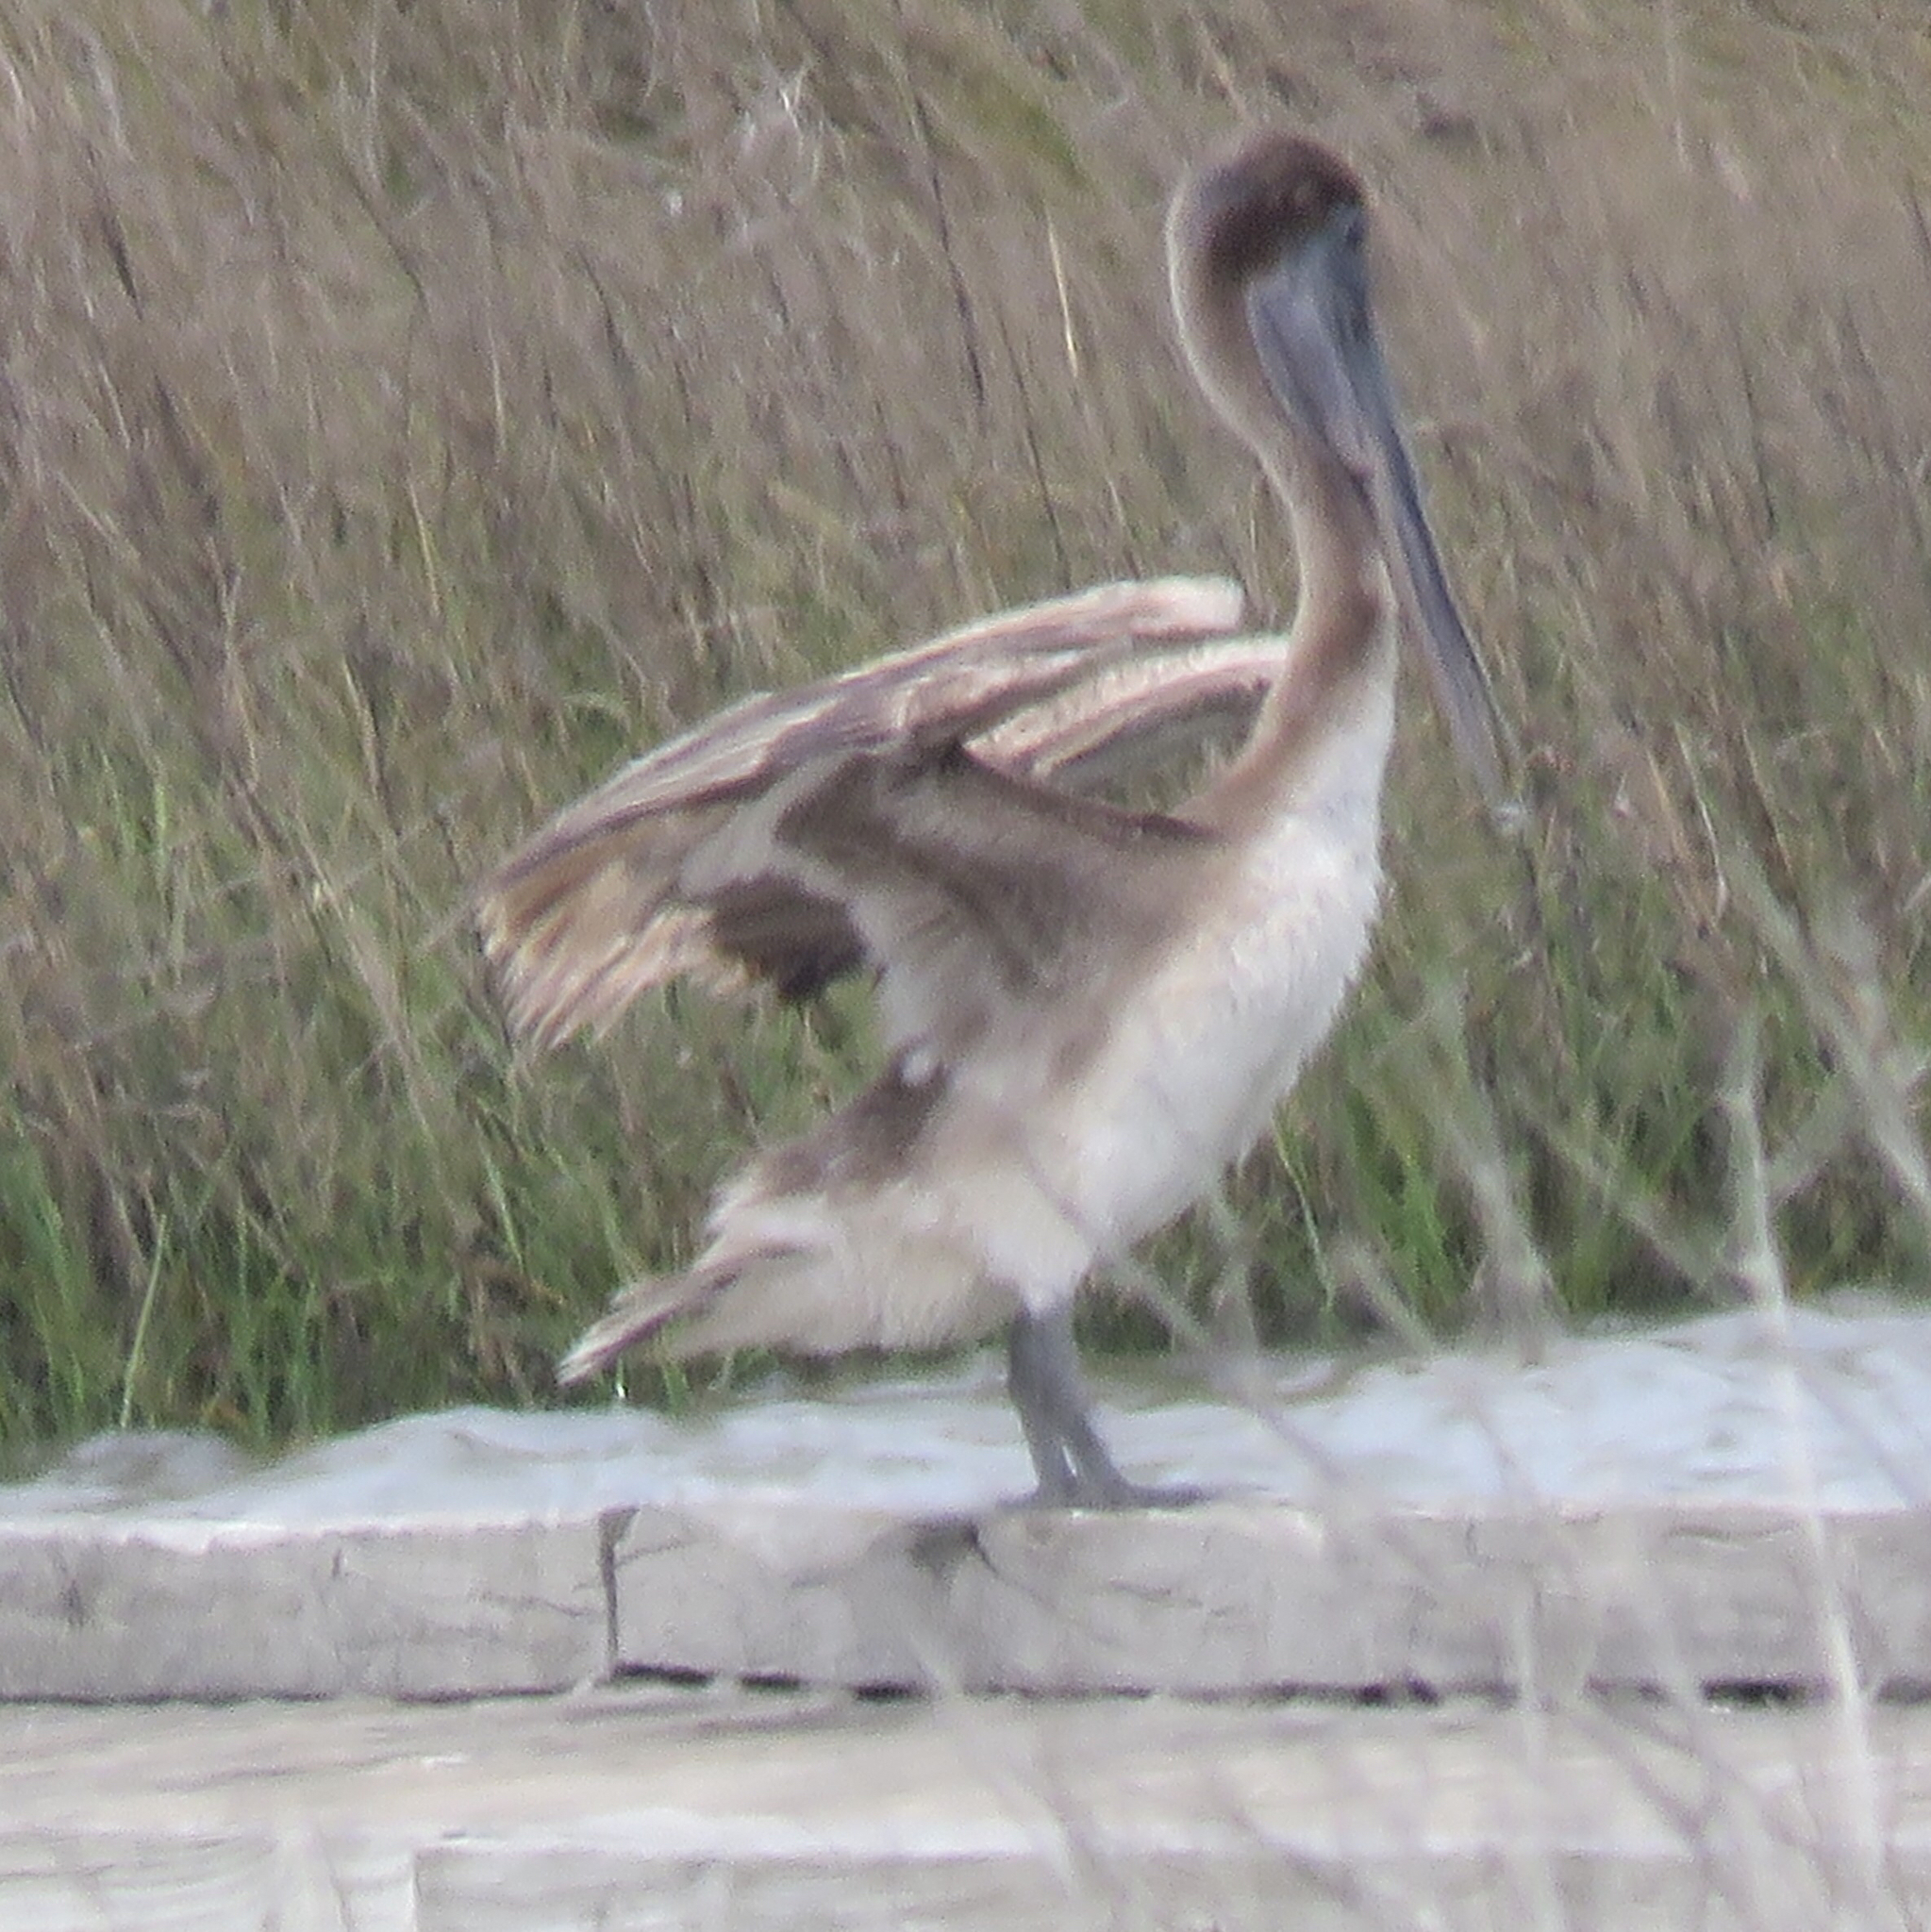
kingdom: Animalia
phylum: Chordata
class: Aves
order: Pelecaniformes
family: Pelecanidae
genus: Pelecanus
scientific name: Pelecanus occidentalis
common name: Brown pelican
